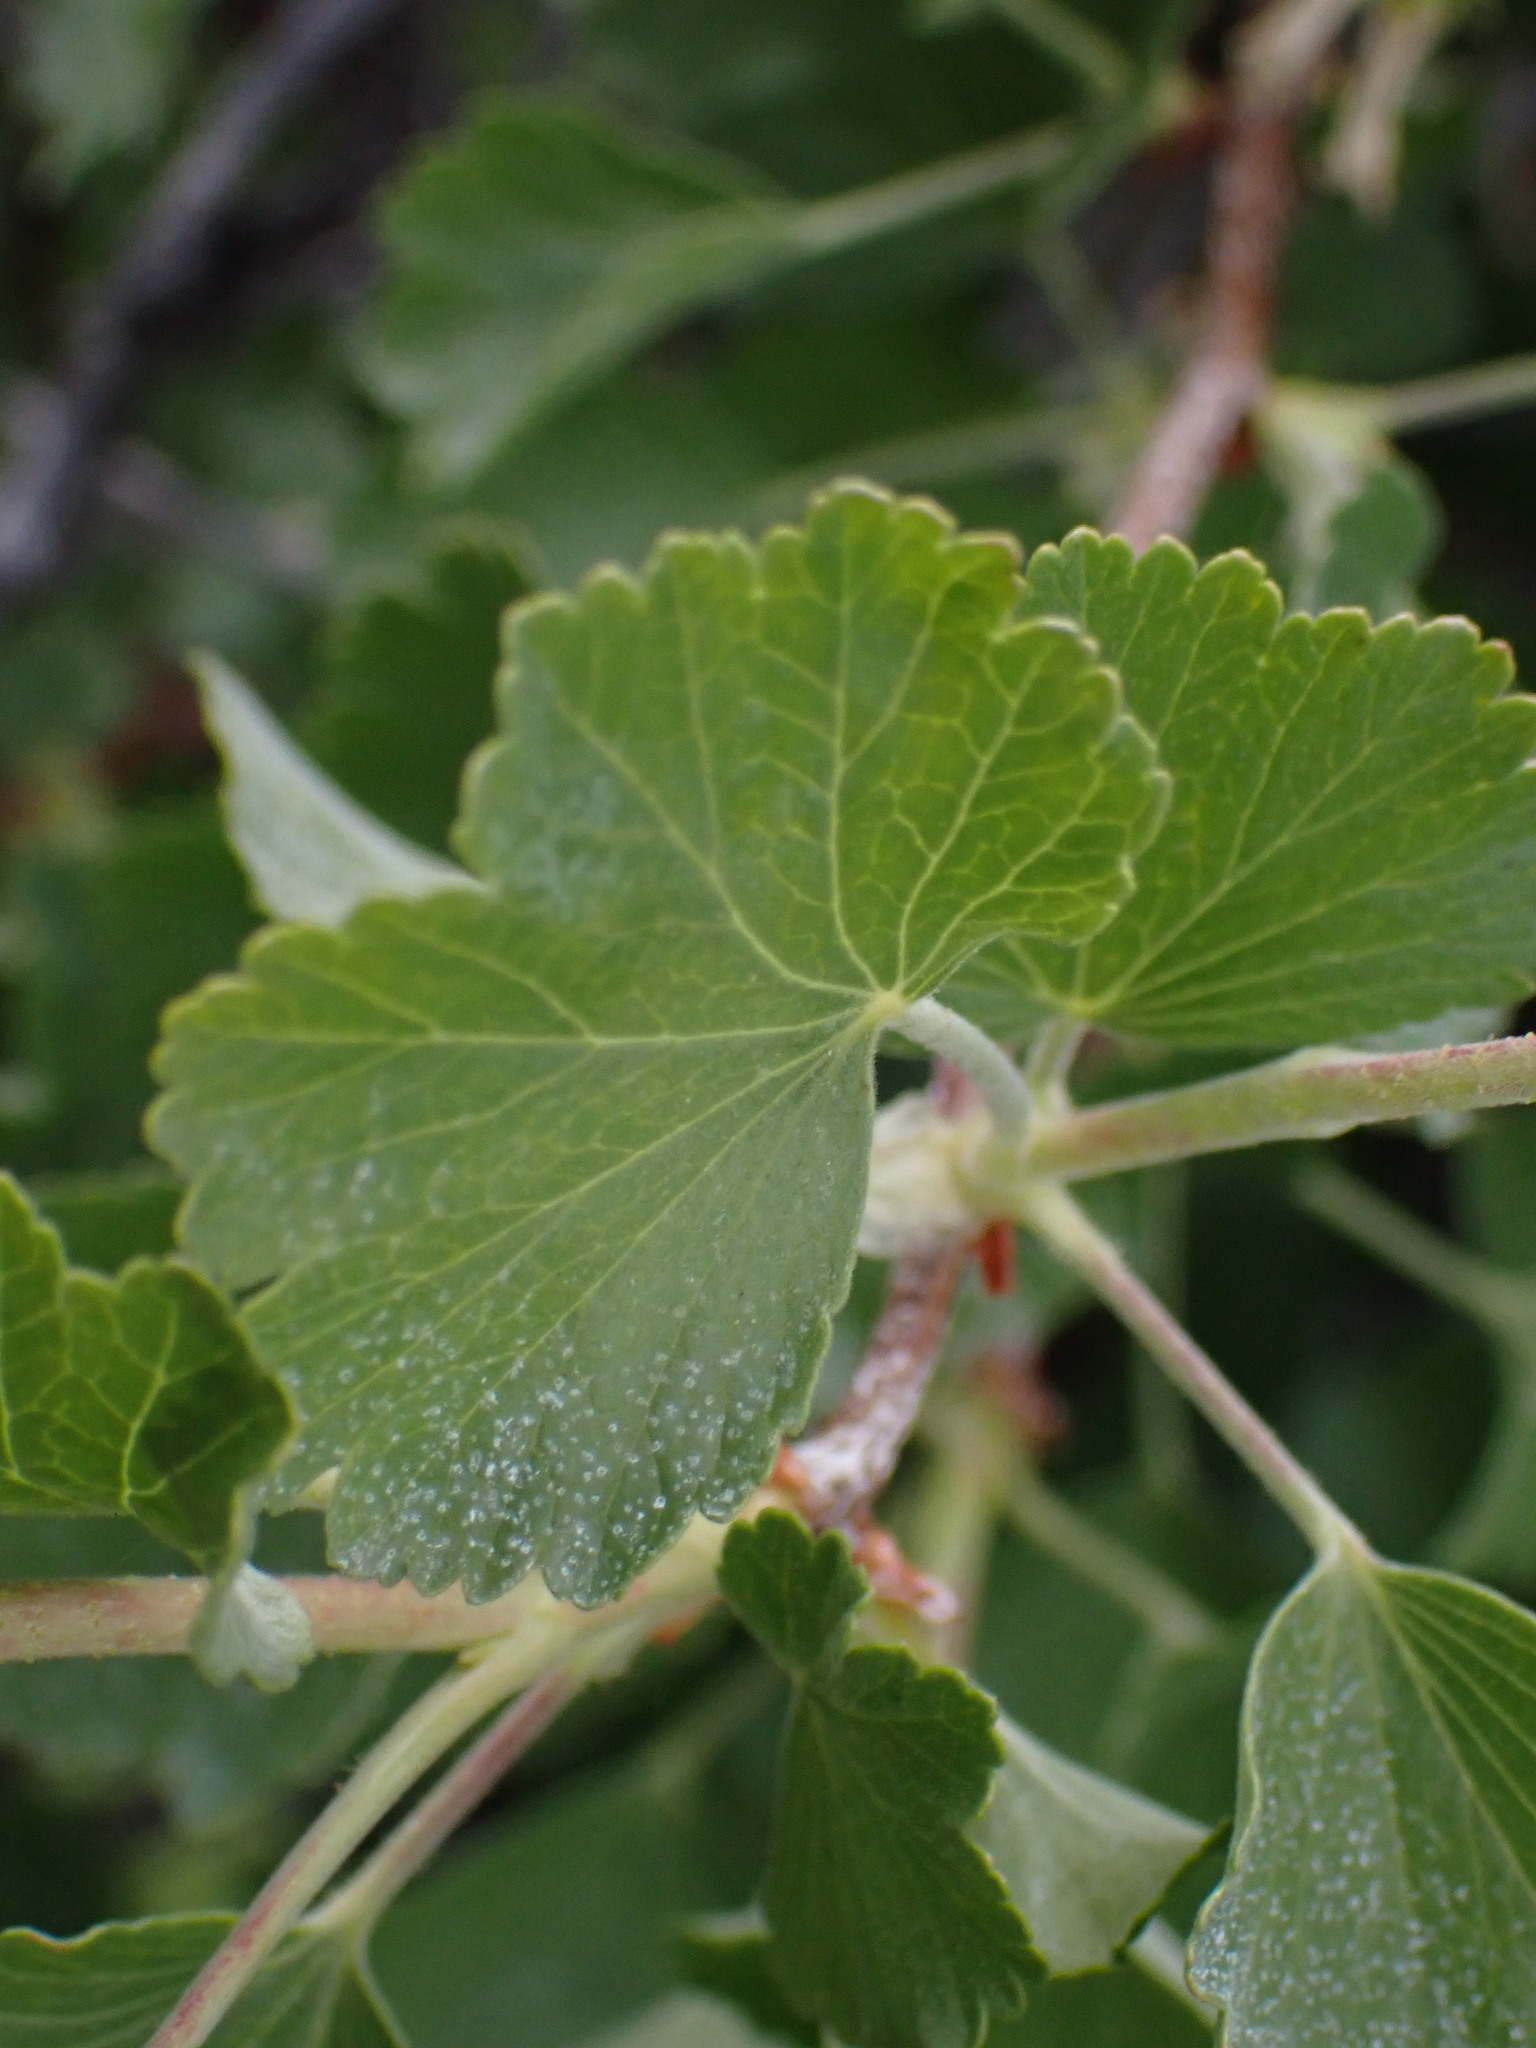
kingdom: Plantae
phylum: Tracheophyta
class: Magnoliopsida
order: Saxifragales
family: Grossulariaceae
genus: Ribes
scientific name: Ribes cereum
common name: Wax currant
